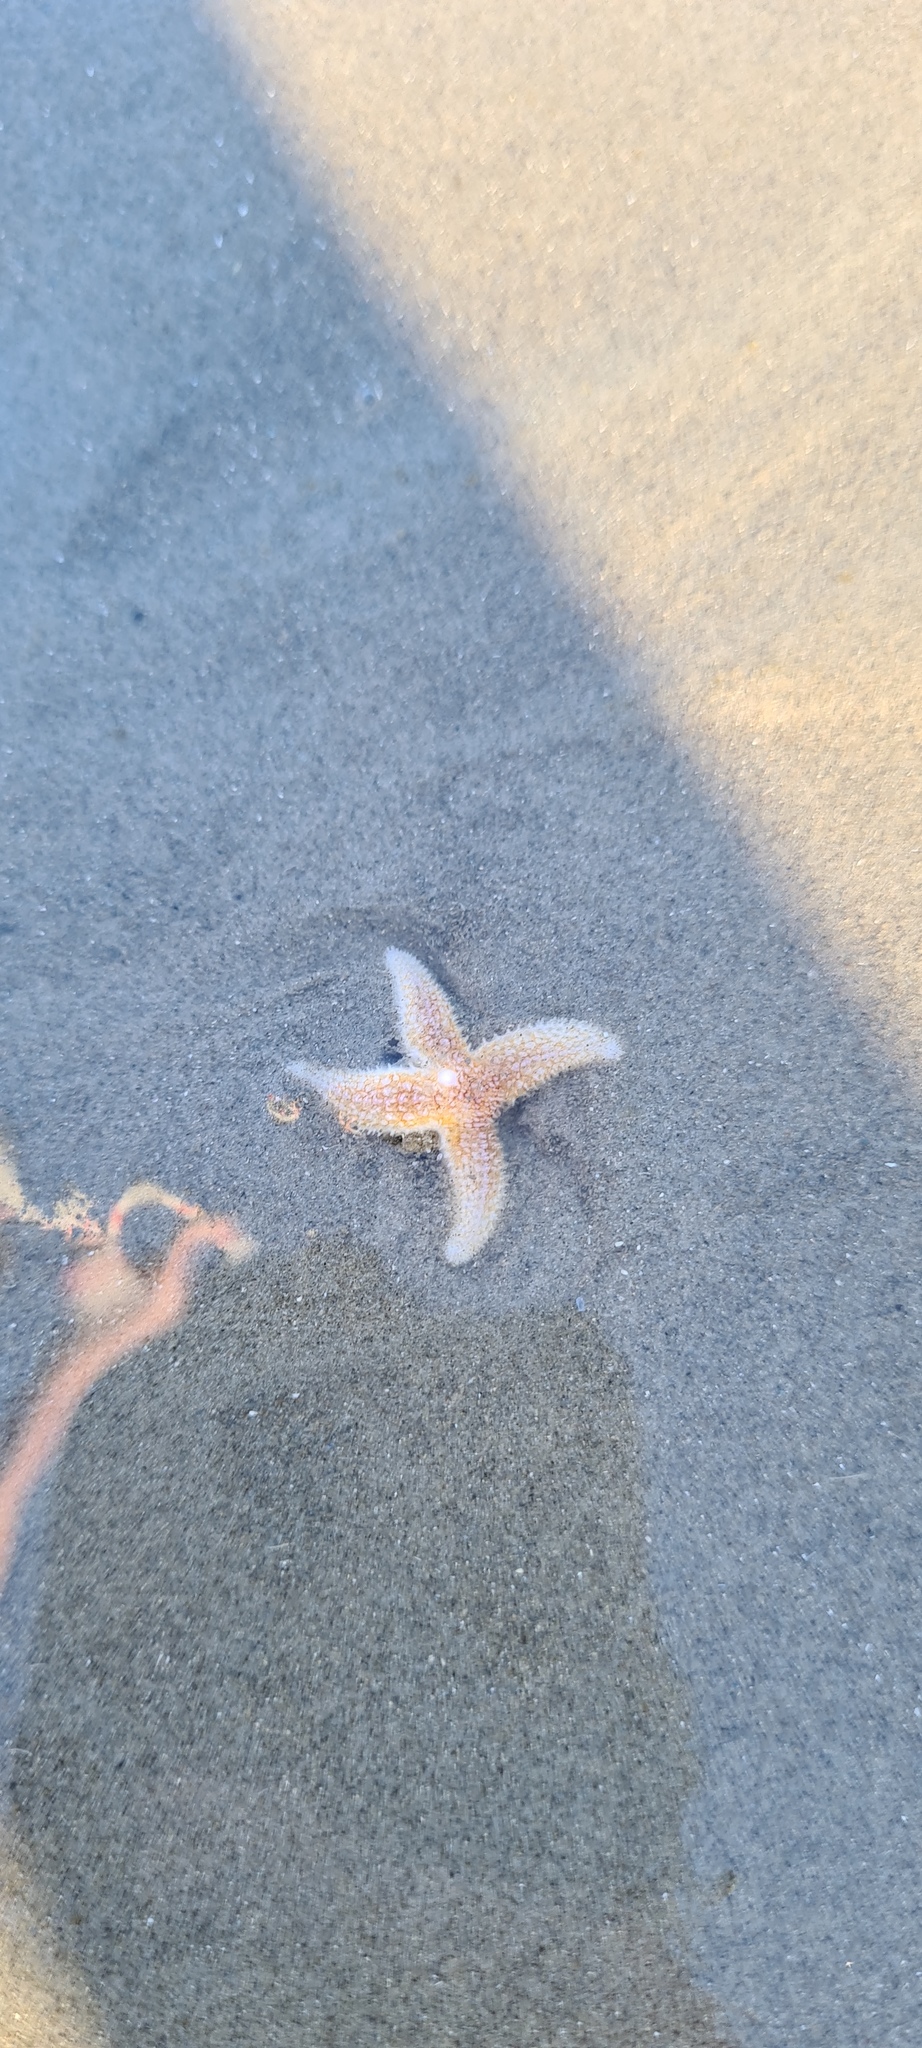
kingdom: Animalia
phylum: Echinodermata
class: Asteroidea
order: Forcipulatida
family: Asteriidae
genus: Asterias
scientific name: Asterias rubens
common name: Common starfish
